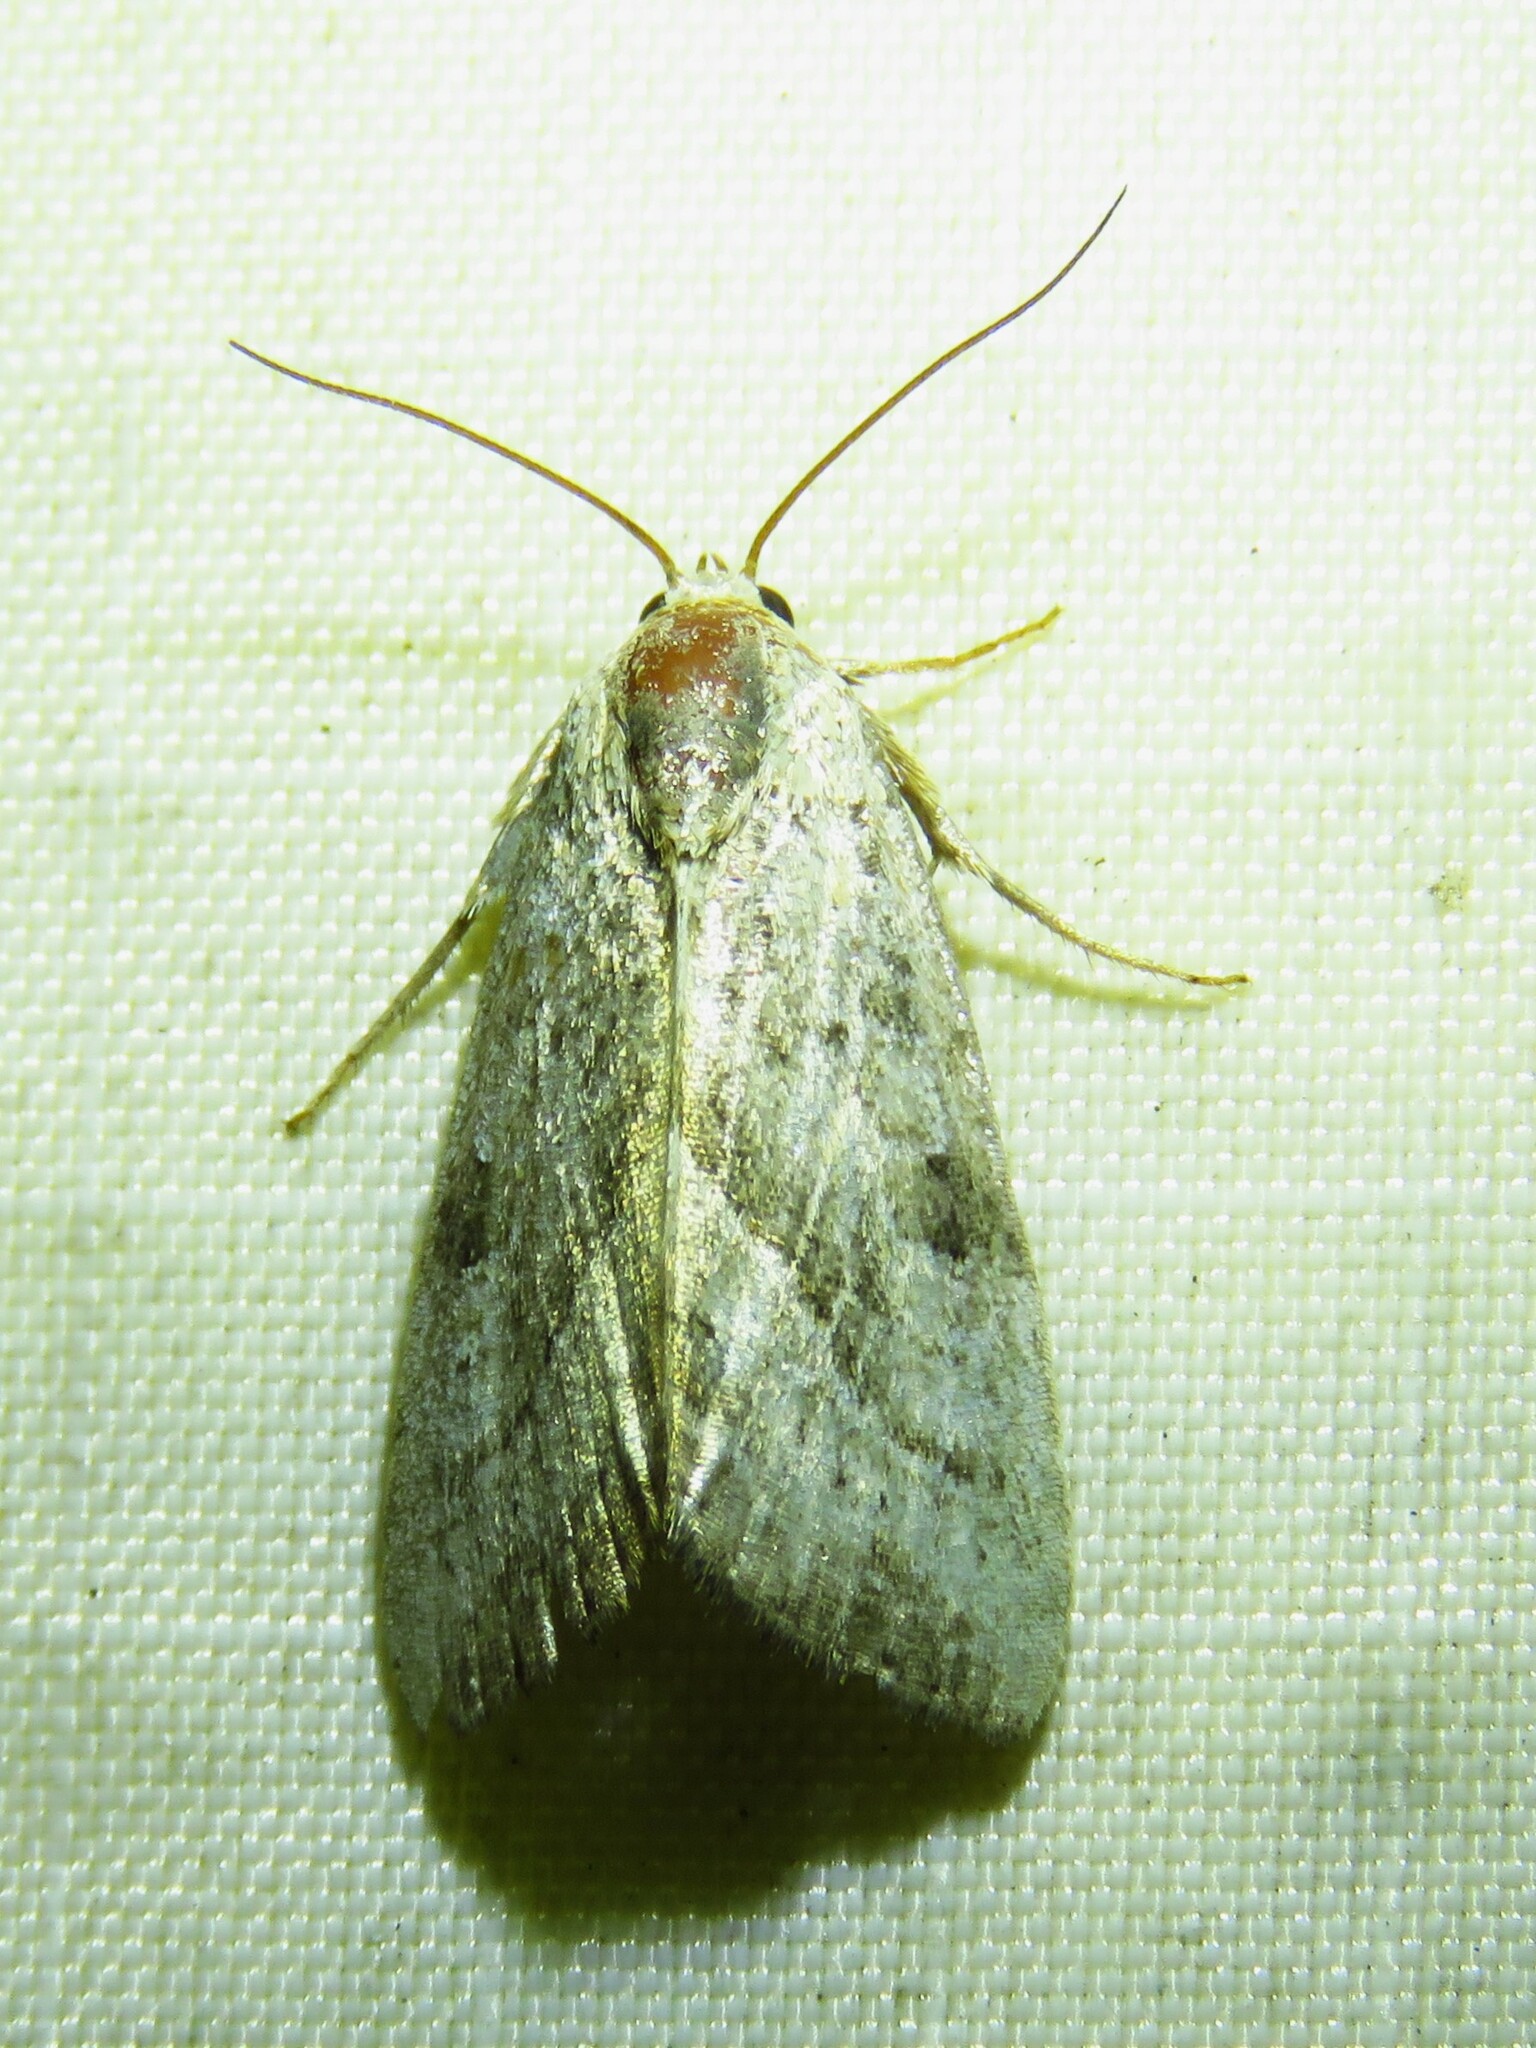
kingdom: Animalia
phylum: Arthropoda
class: Insecta
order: Lepidoptera
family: Noctuidae
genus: Galgula
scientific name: Galgula partita
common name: Wedgeling
